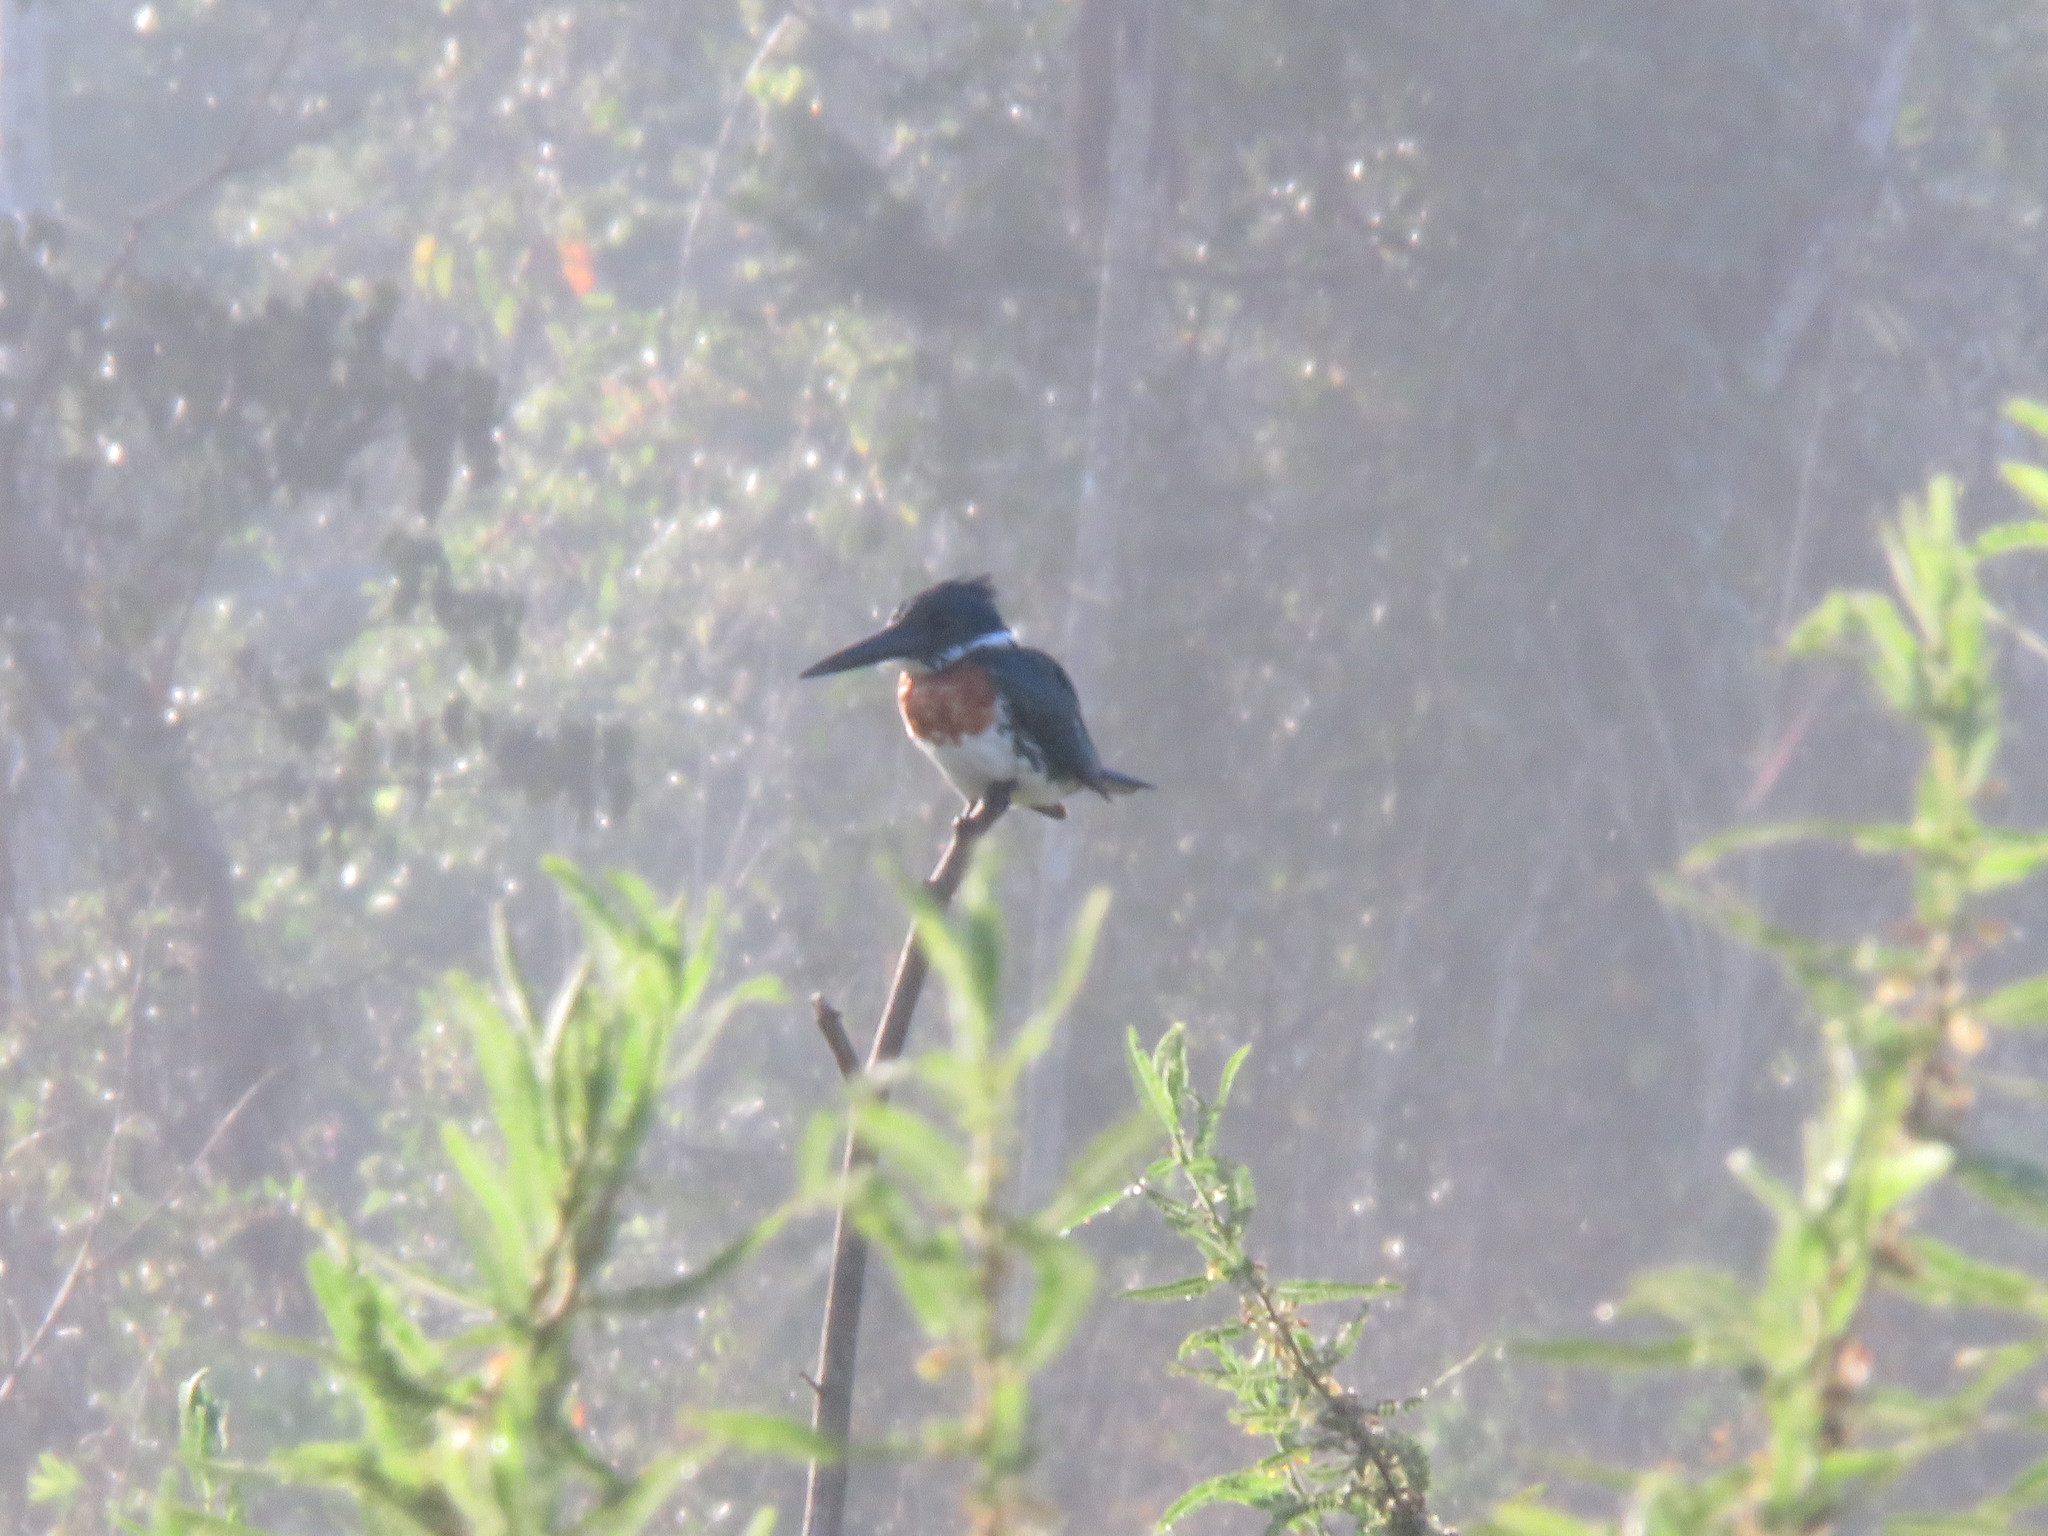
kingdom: Animalia
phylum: Chordata
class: Aves
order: Coraciiformes
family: Alcedinidae
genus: Chloroceryle
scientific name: Chloroceryle amazona
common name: Amazon kingfisher
